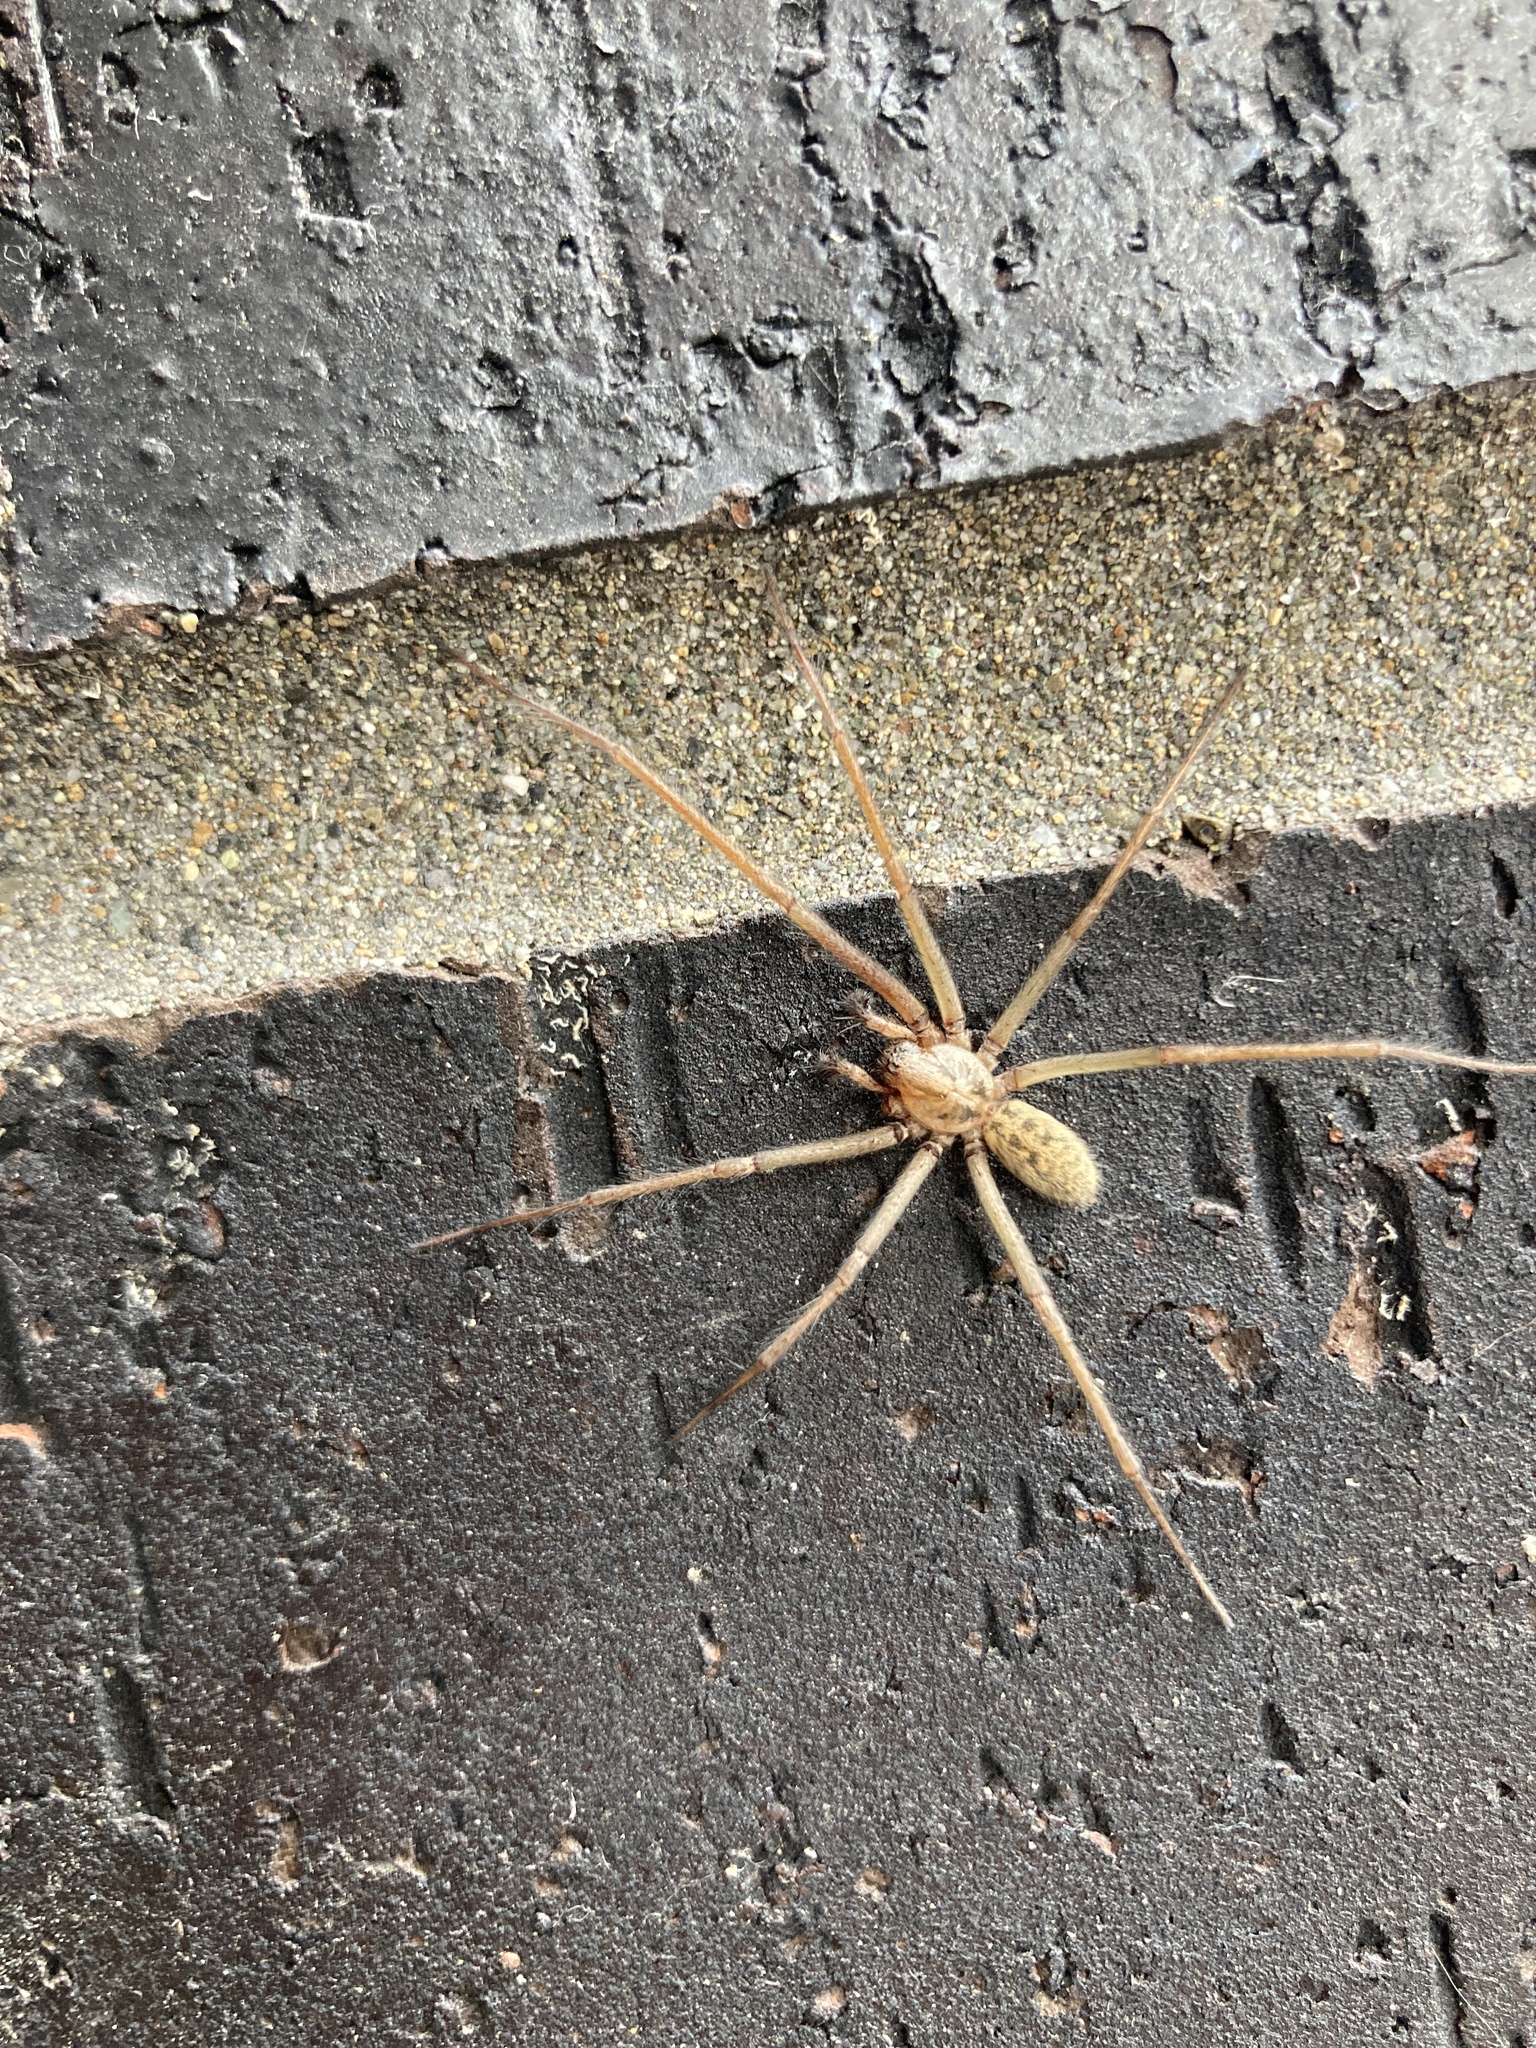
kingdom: Animalia
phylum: Arthropoda
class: Arachnida
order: Araneae
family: Agelenidae
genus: Eratigena
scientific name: Eratigena duellica
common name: Giant house spider
